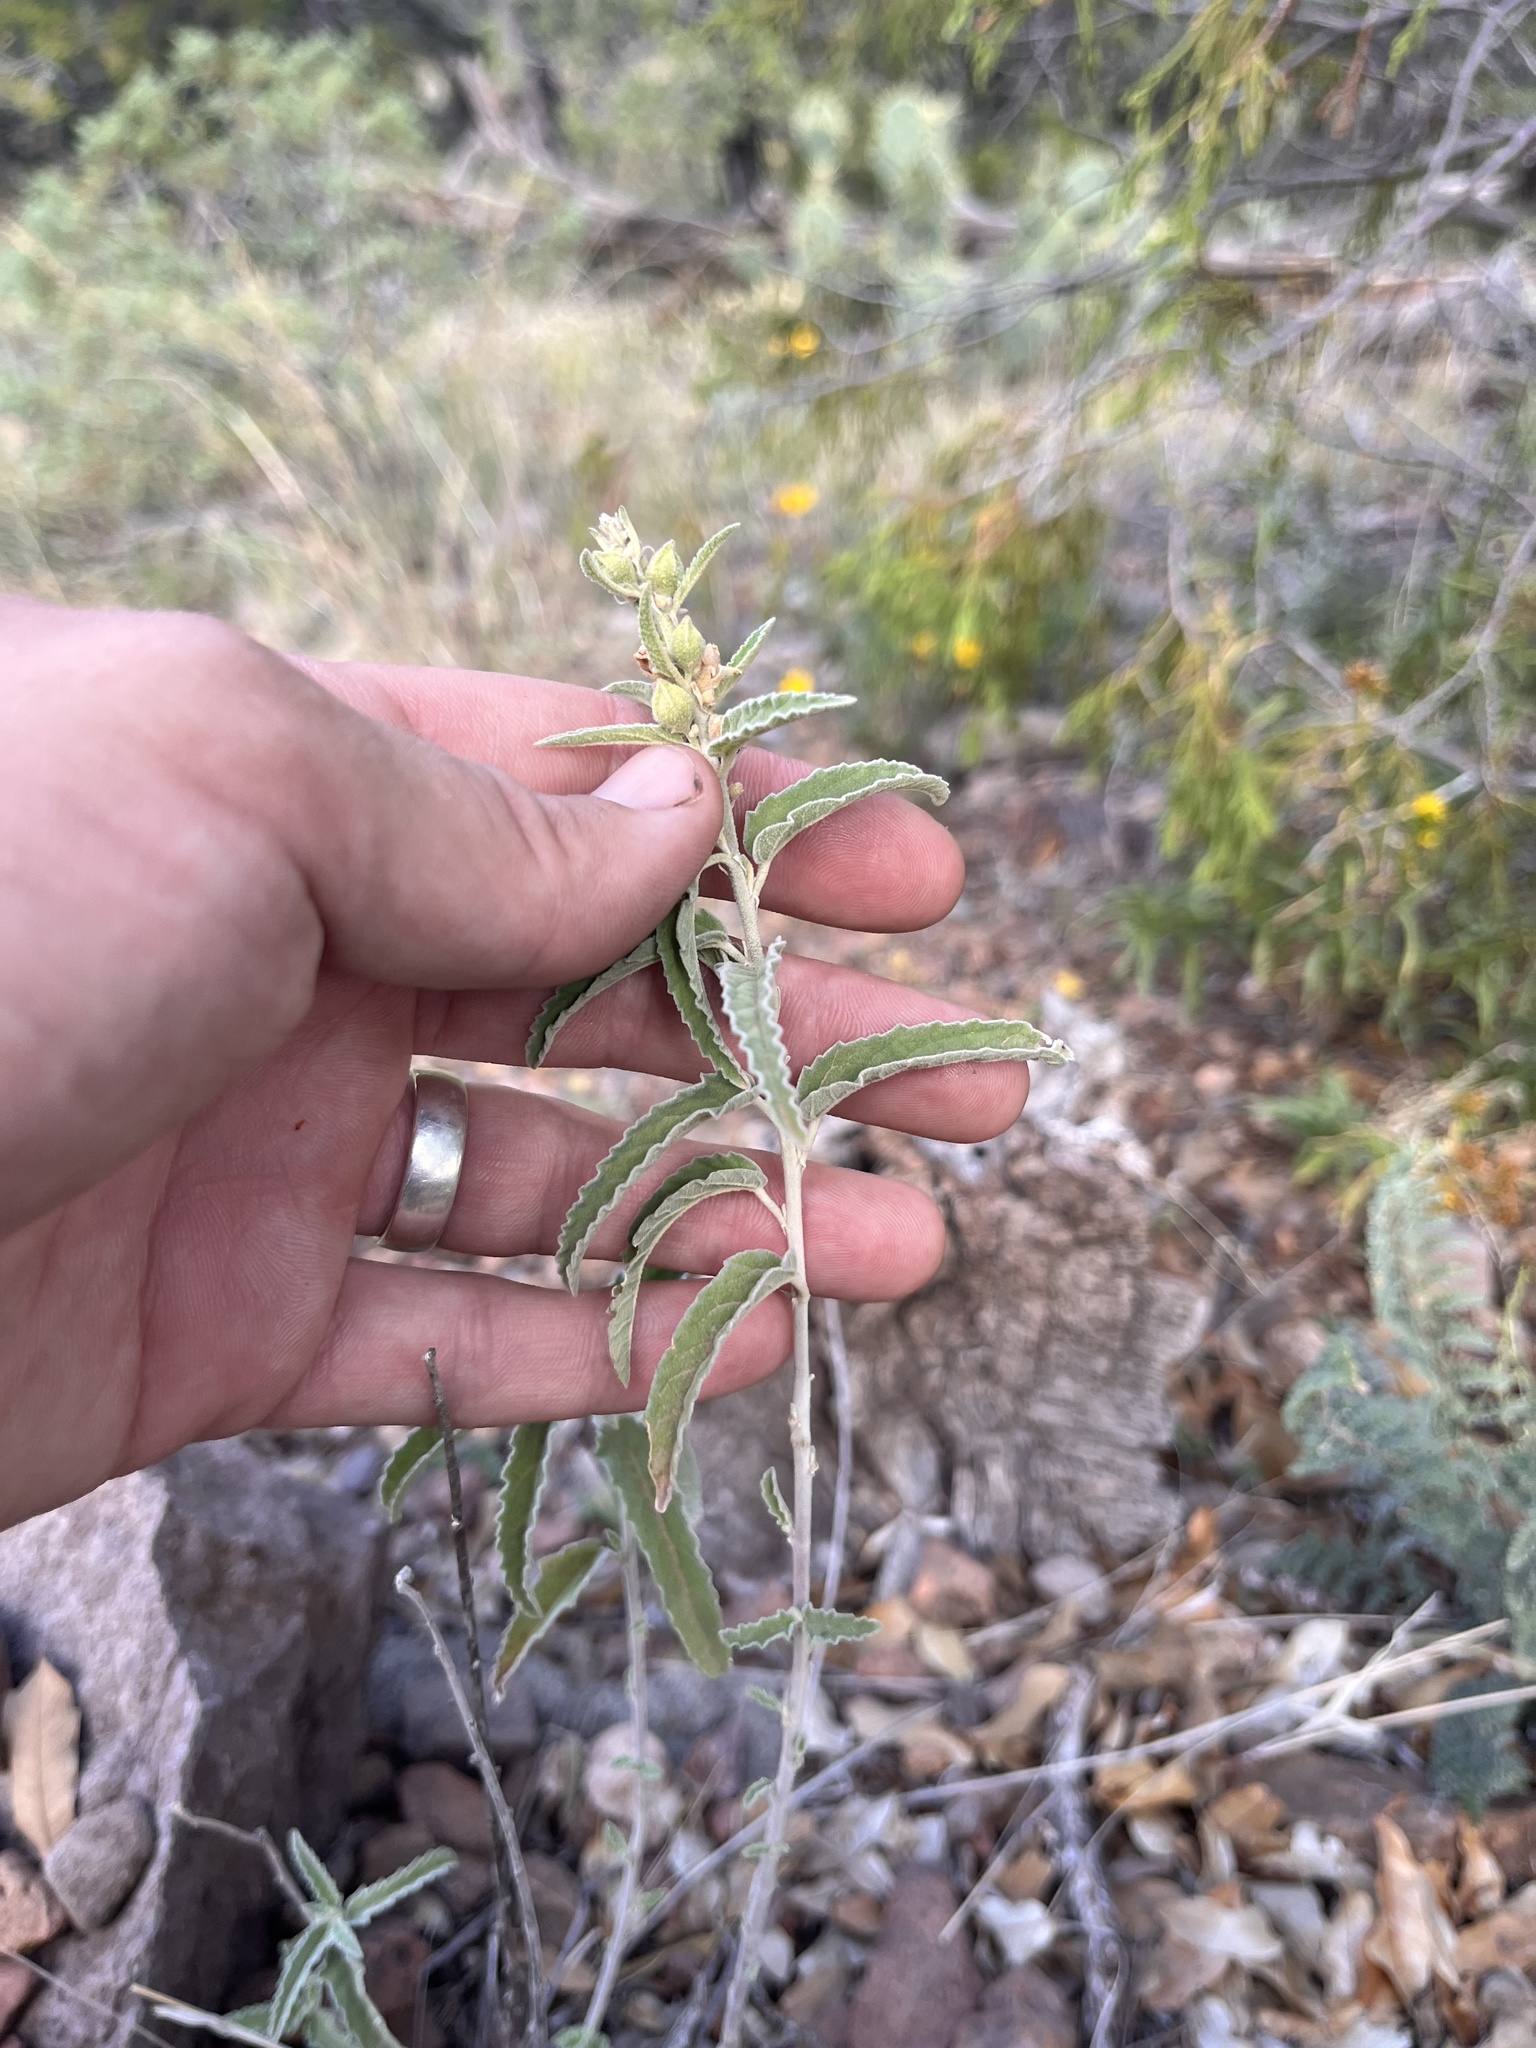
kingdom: Plantae
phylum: Tracheophyta
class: Magnoliopsida
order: Malvales
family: Malvaceae
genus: Sphaeralcea
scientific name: Sphaeralcea angustifolia
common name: Copper globe-mallow
